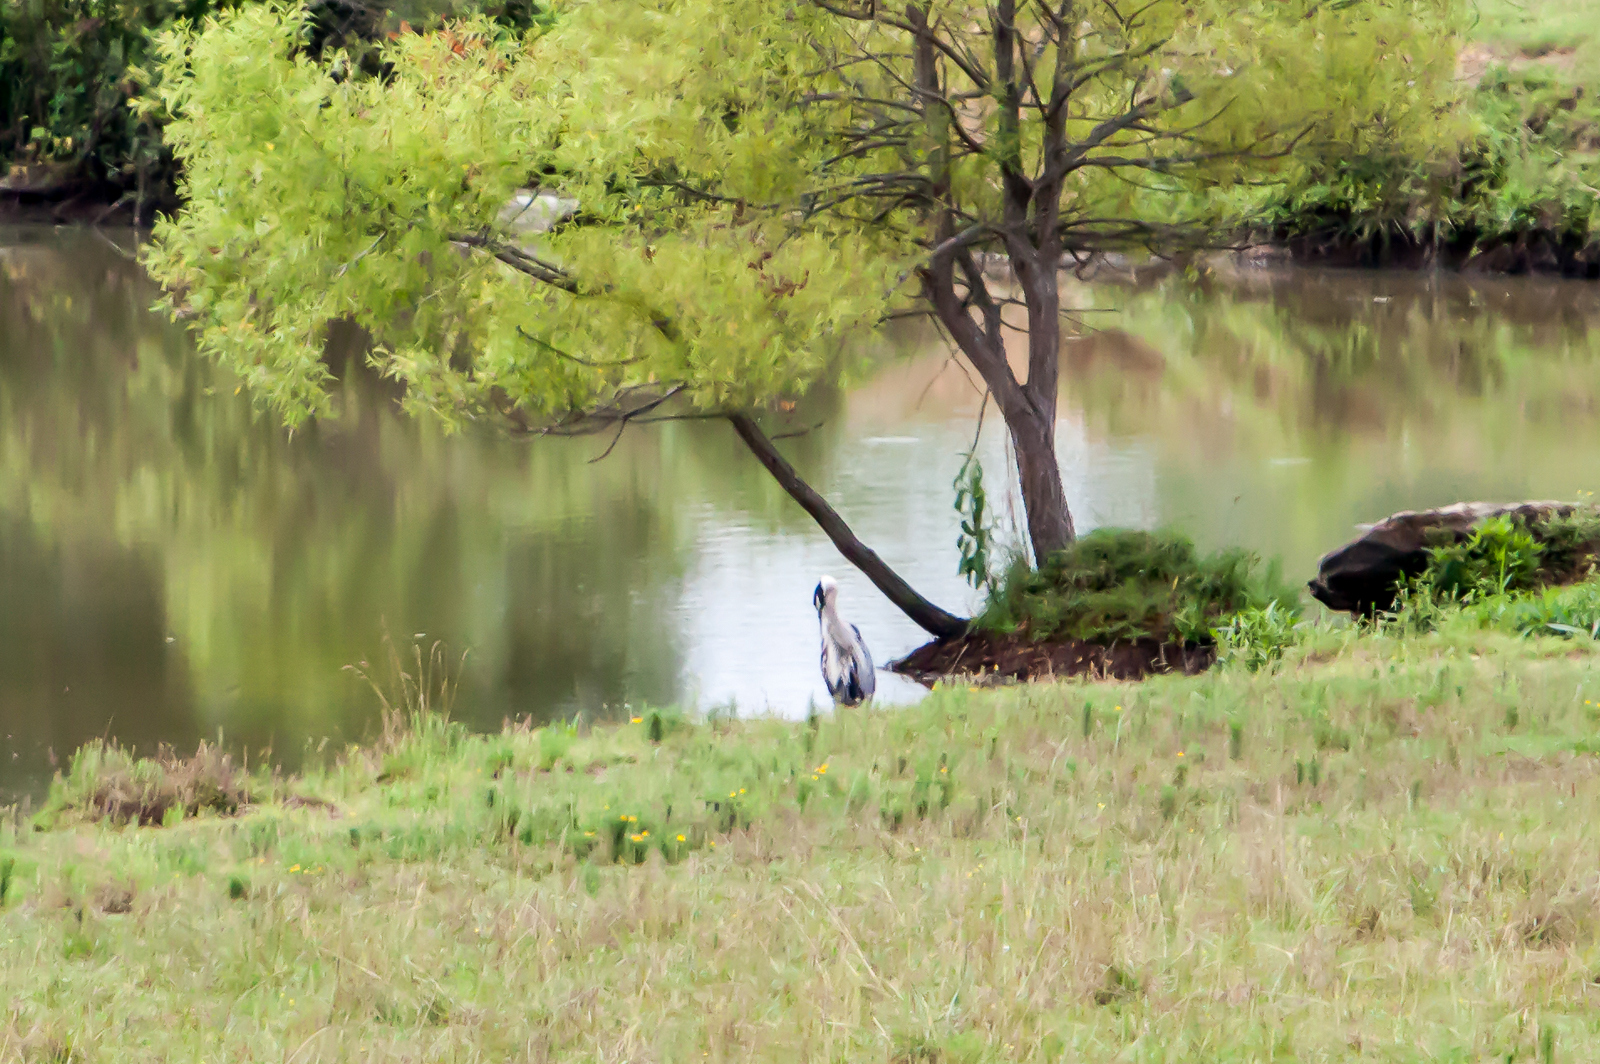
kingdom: Animalia
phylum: Chordata
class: Aves
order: Pelecaniformes
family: Ardeidae
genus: Ardea
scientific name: Ardea herodias
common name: Great blue heron
